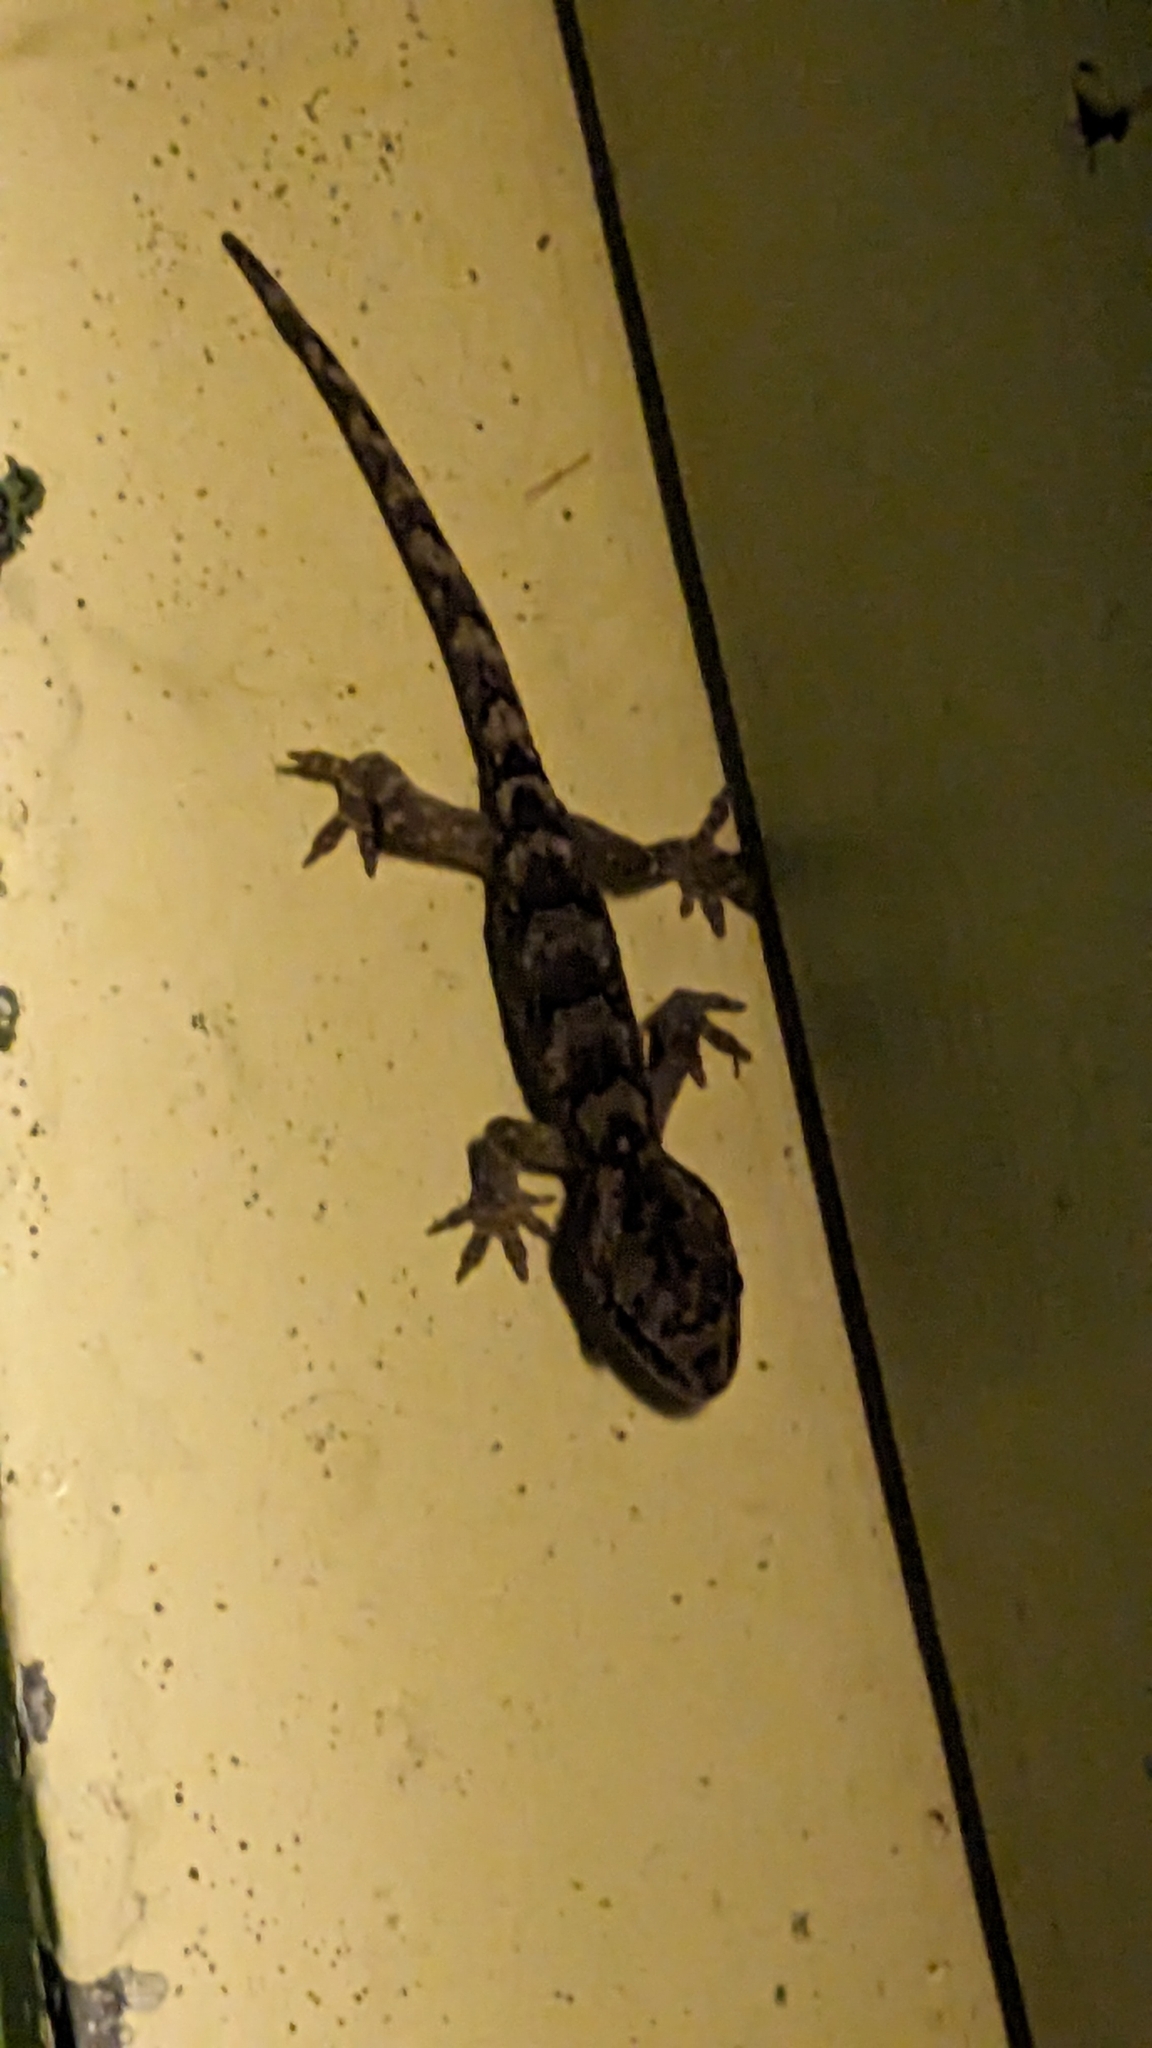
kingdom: Animalia
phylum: Chordata
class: Squamata
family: Diplodactylidae
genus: Woodworthia
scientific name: Woodworthia maculata
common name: Raukawa gecko
